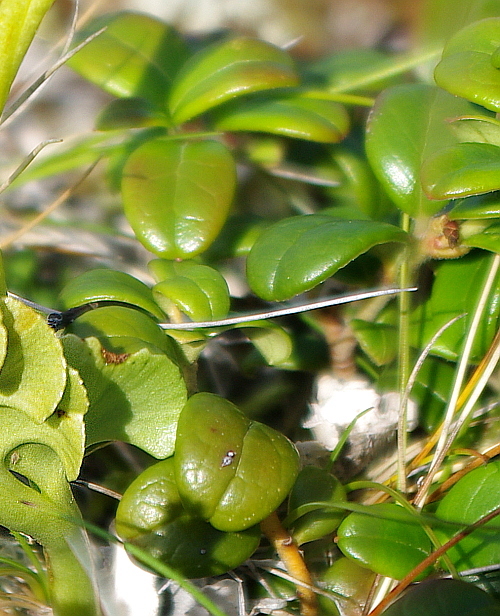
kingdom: Plantae
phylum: Tracheophyta
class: Magnoliopsida
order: Ericales
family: Ericaceae
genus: Vaccinium
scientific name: Vaccinium vitis-idaea
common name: Cowberry
